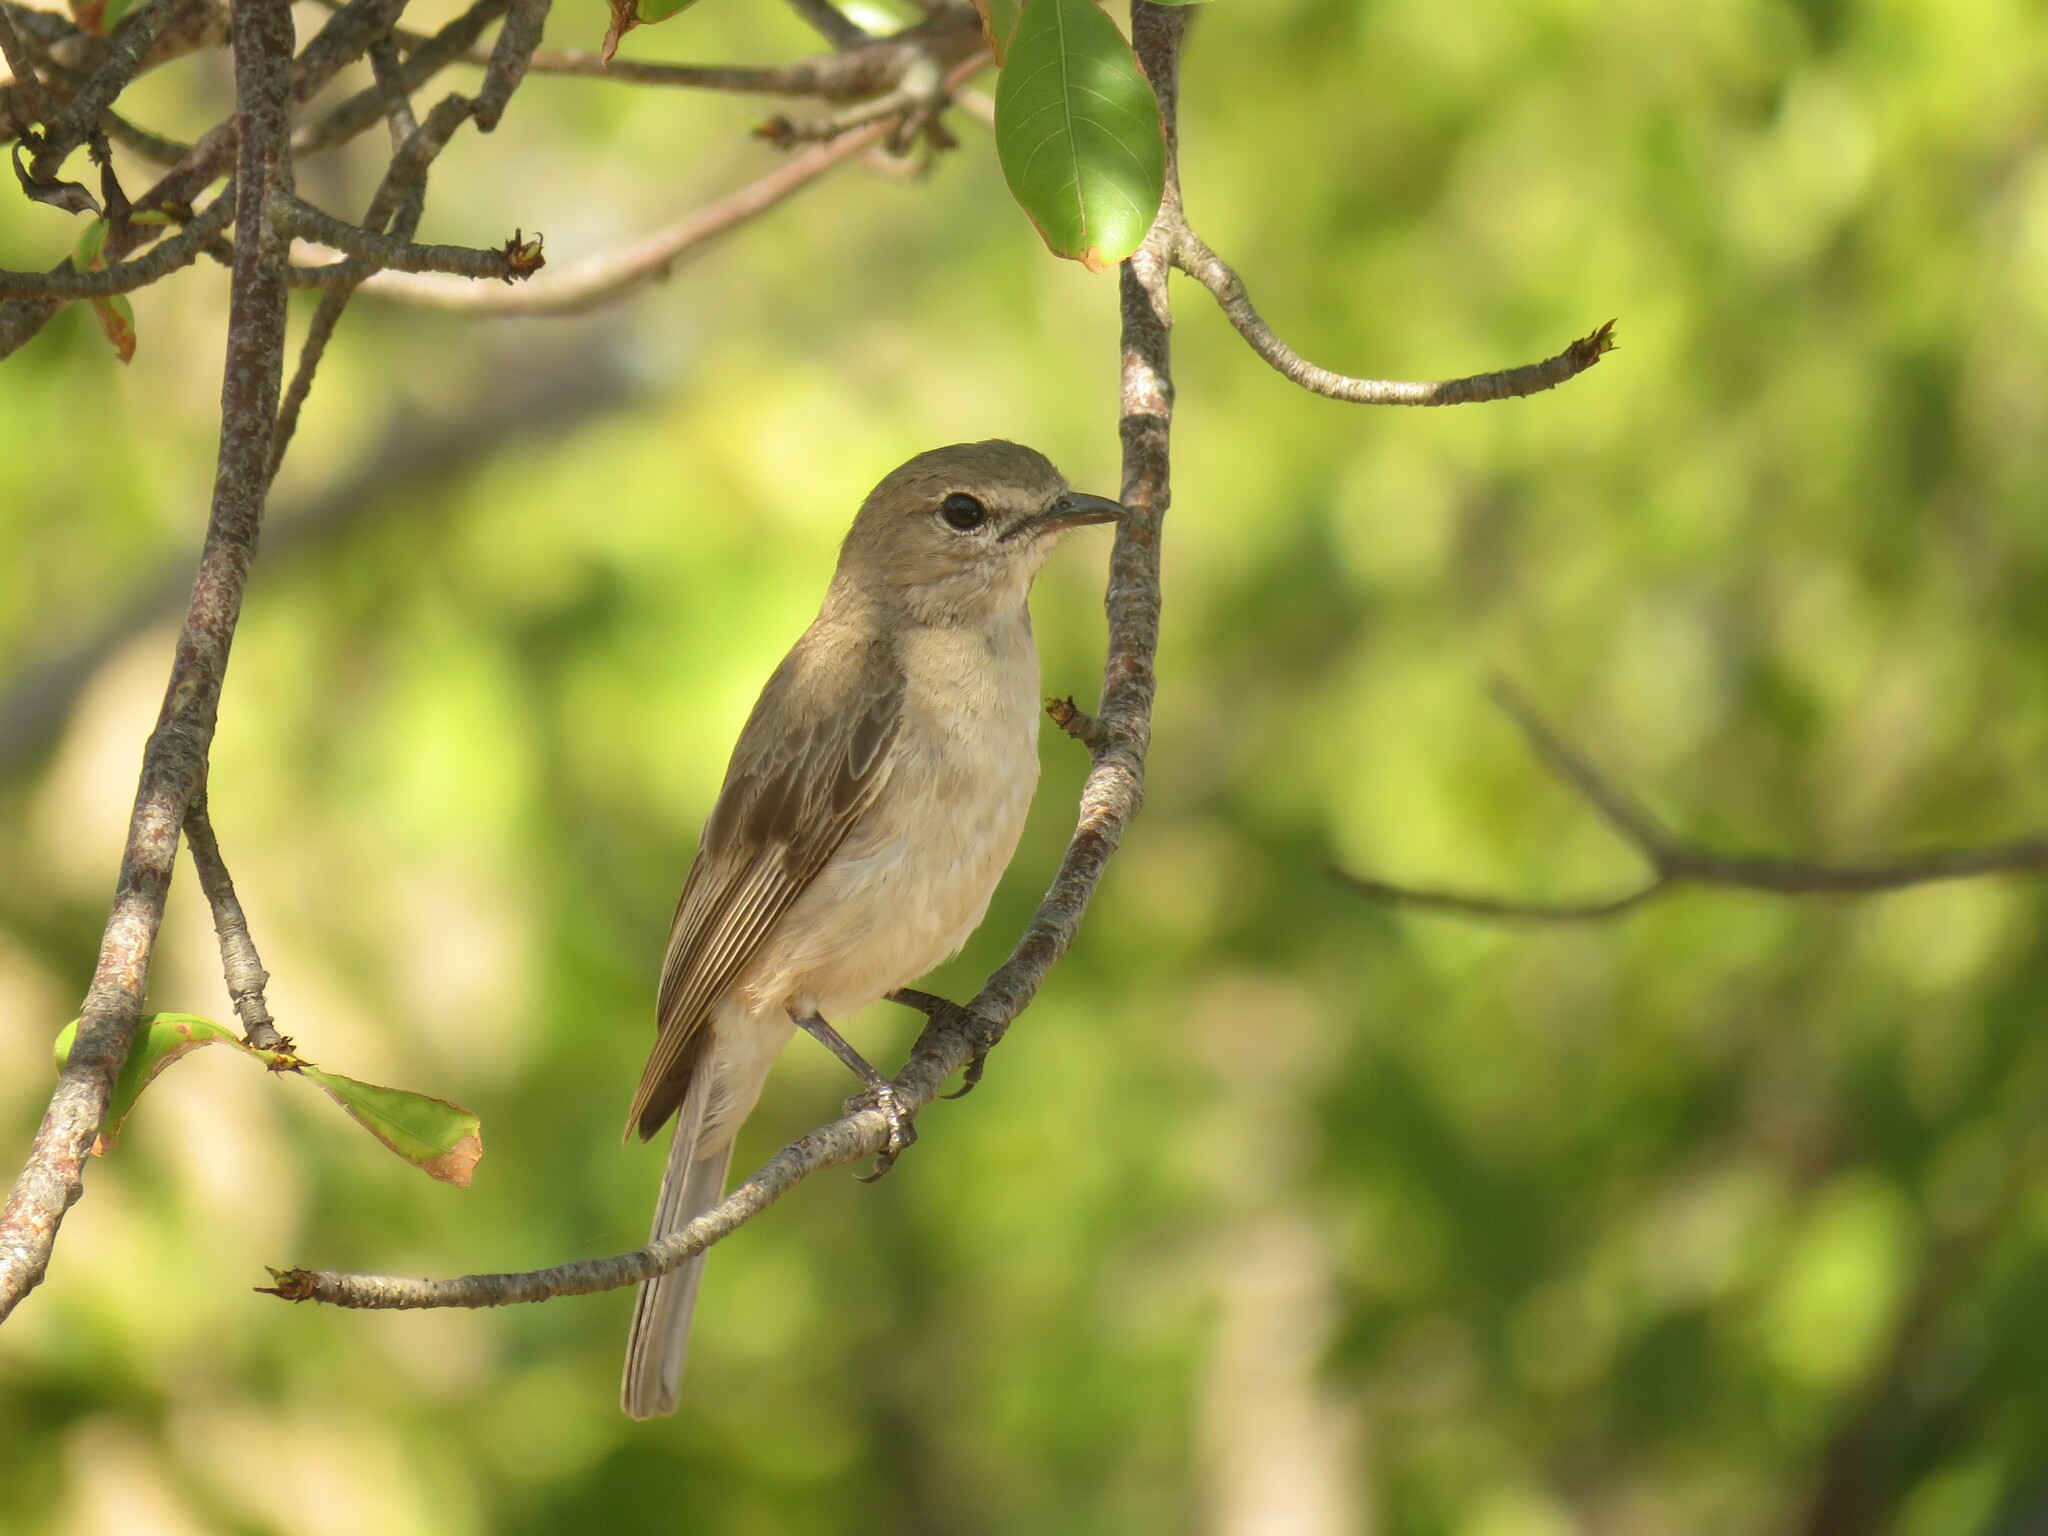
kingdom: Animalia
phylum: Chordata
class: Aves
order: Passeriformes
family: Muscicapidae
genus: Bradornis
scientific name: Bradornis pallidus
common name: Pale flycatcher
